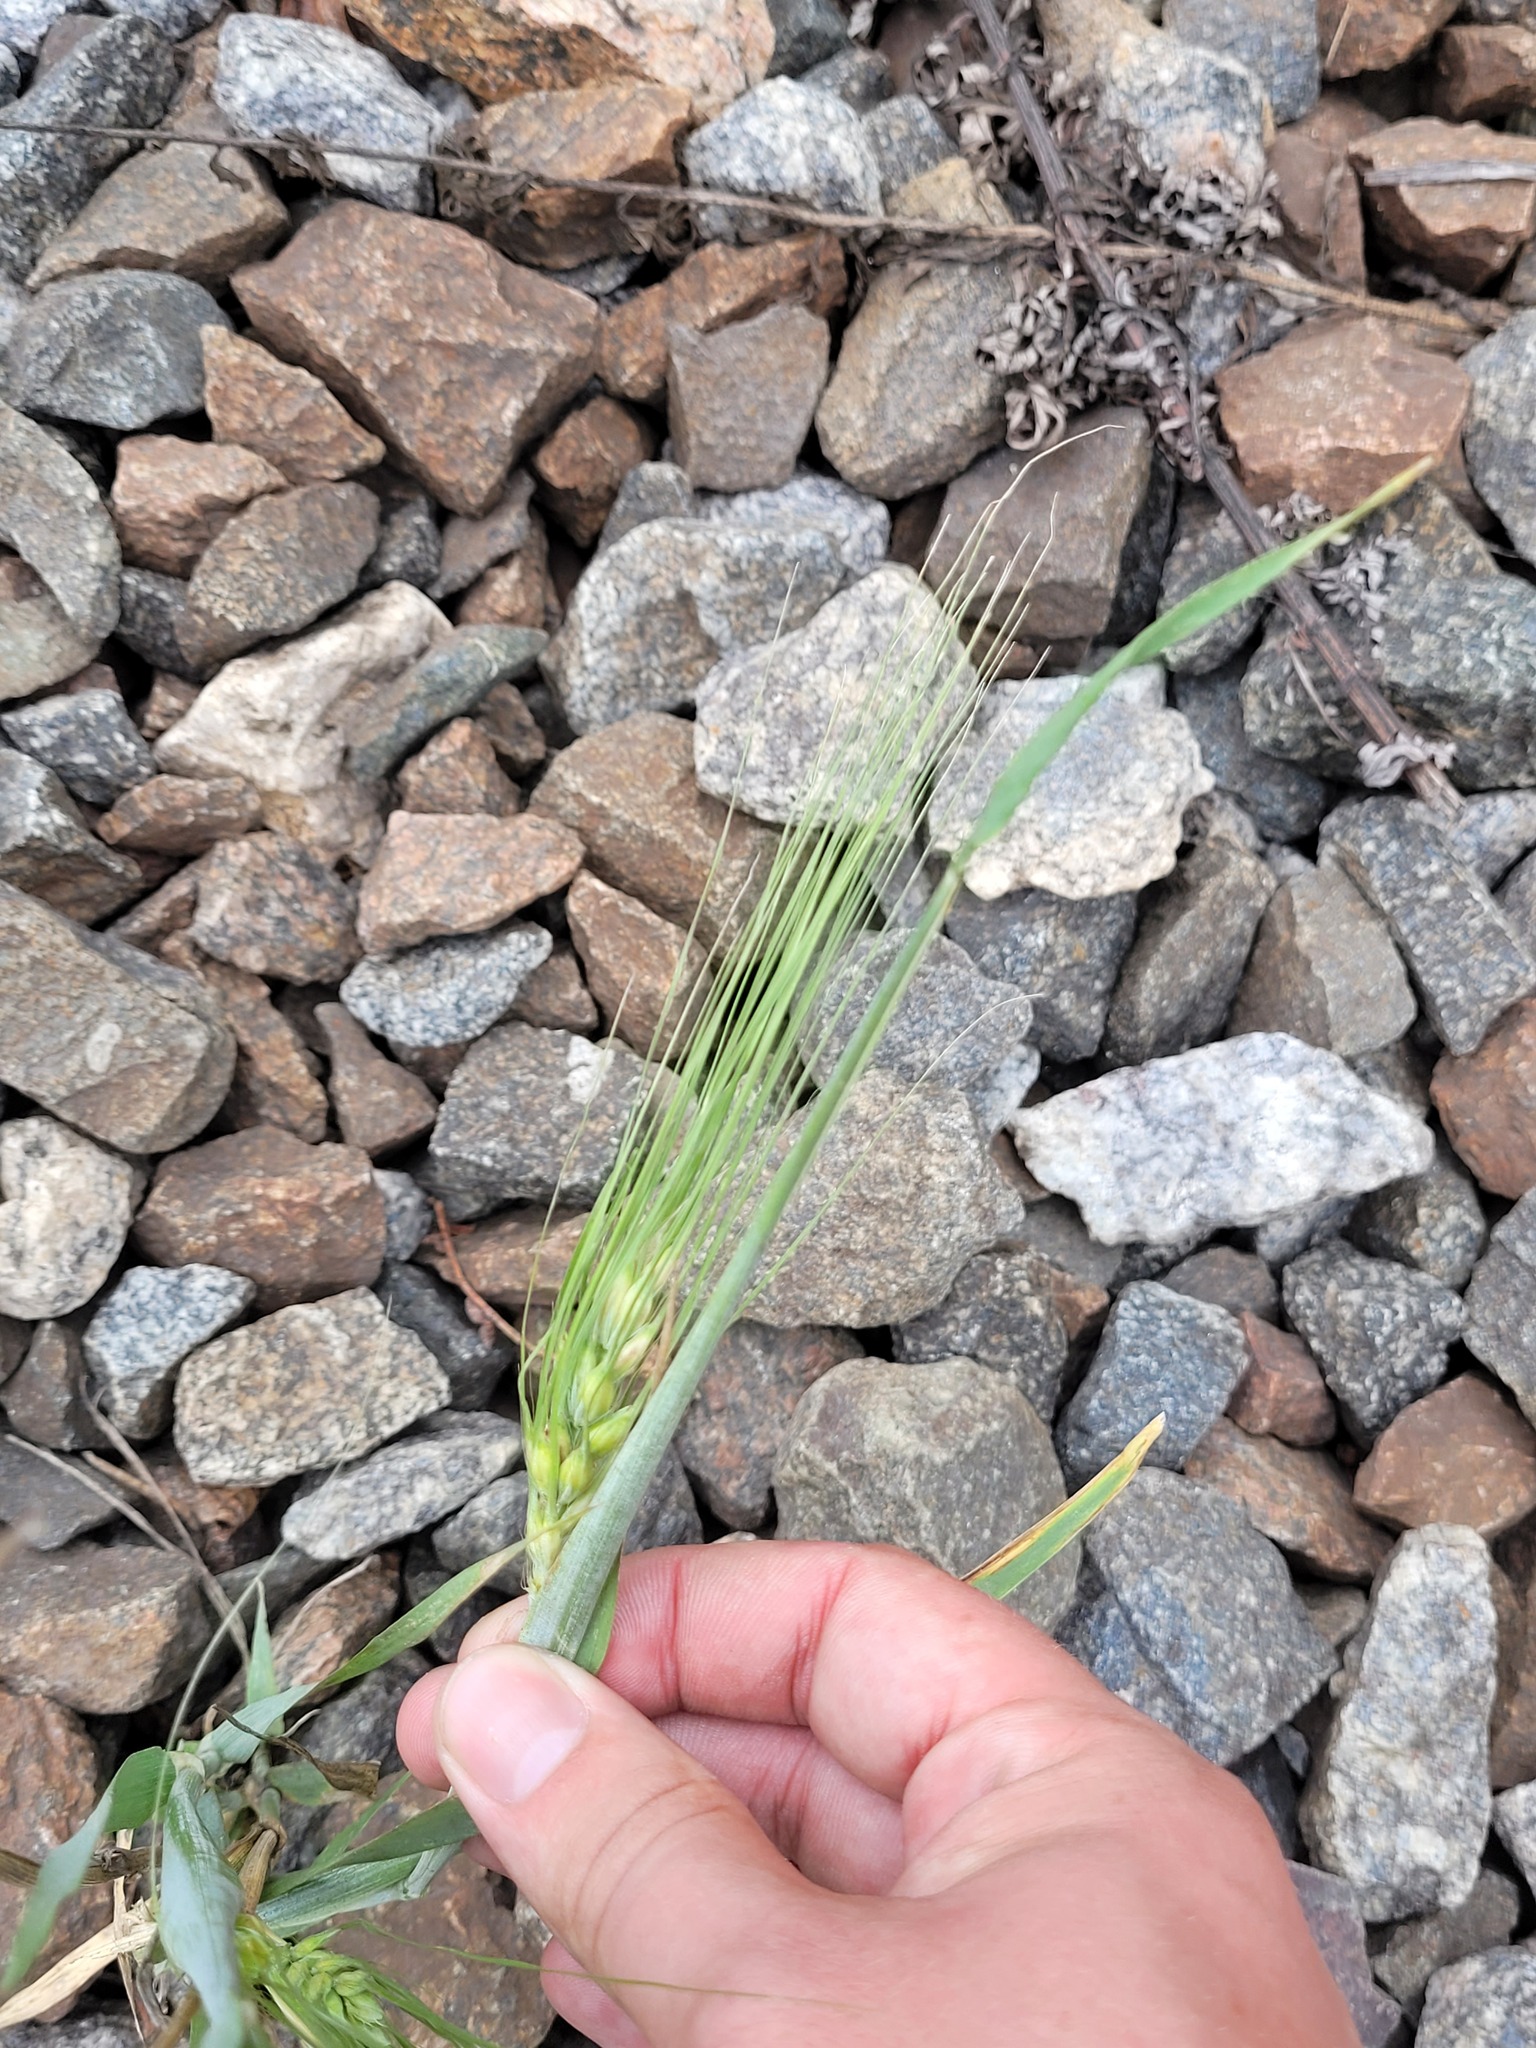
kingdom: Plantae
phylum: Tracheophyta
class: Liliopsida
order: Poales
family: Poaceae
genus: Hordeum
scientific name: Hordeum vulgare
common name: Common barley
